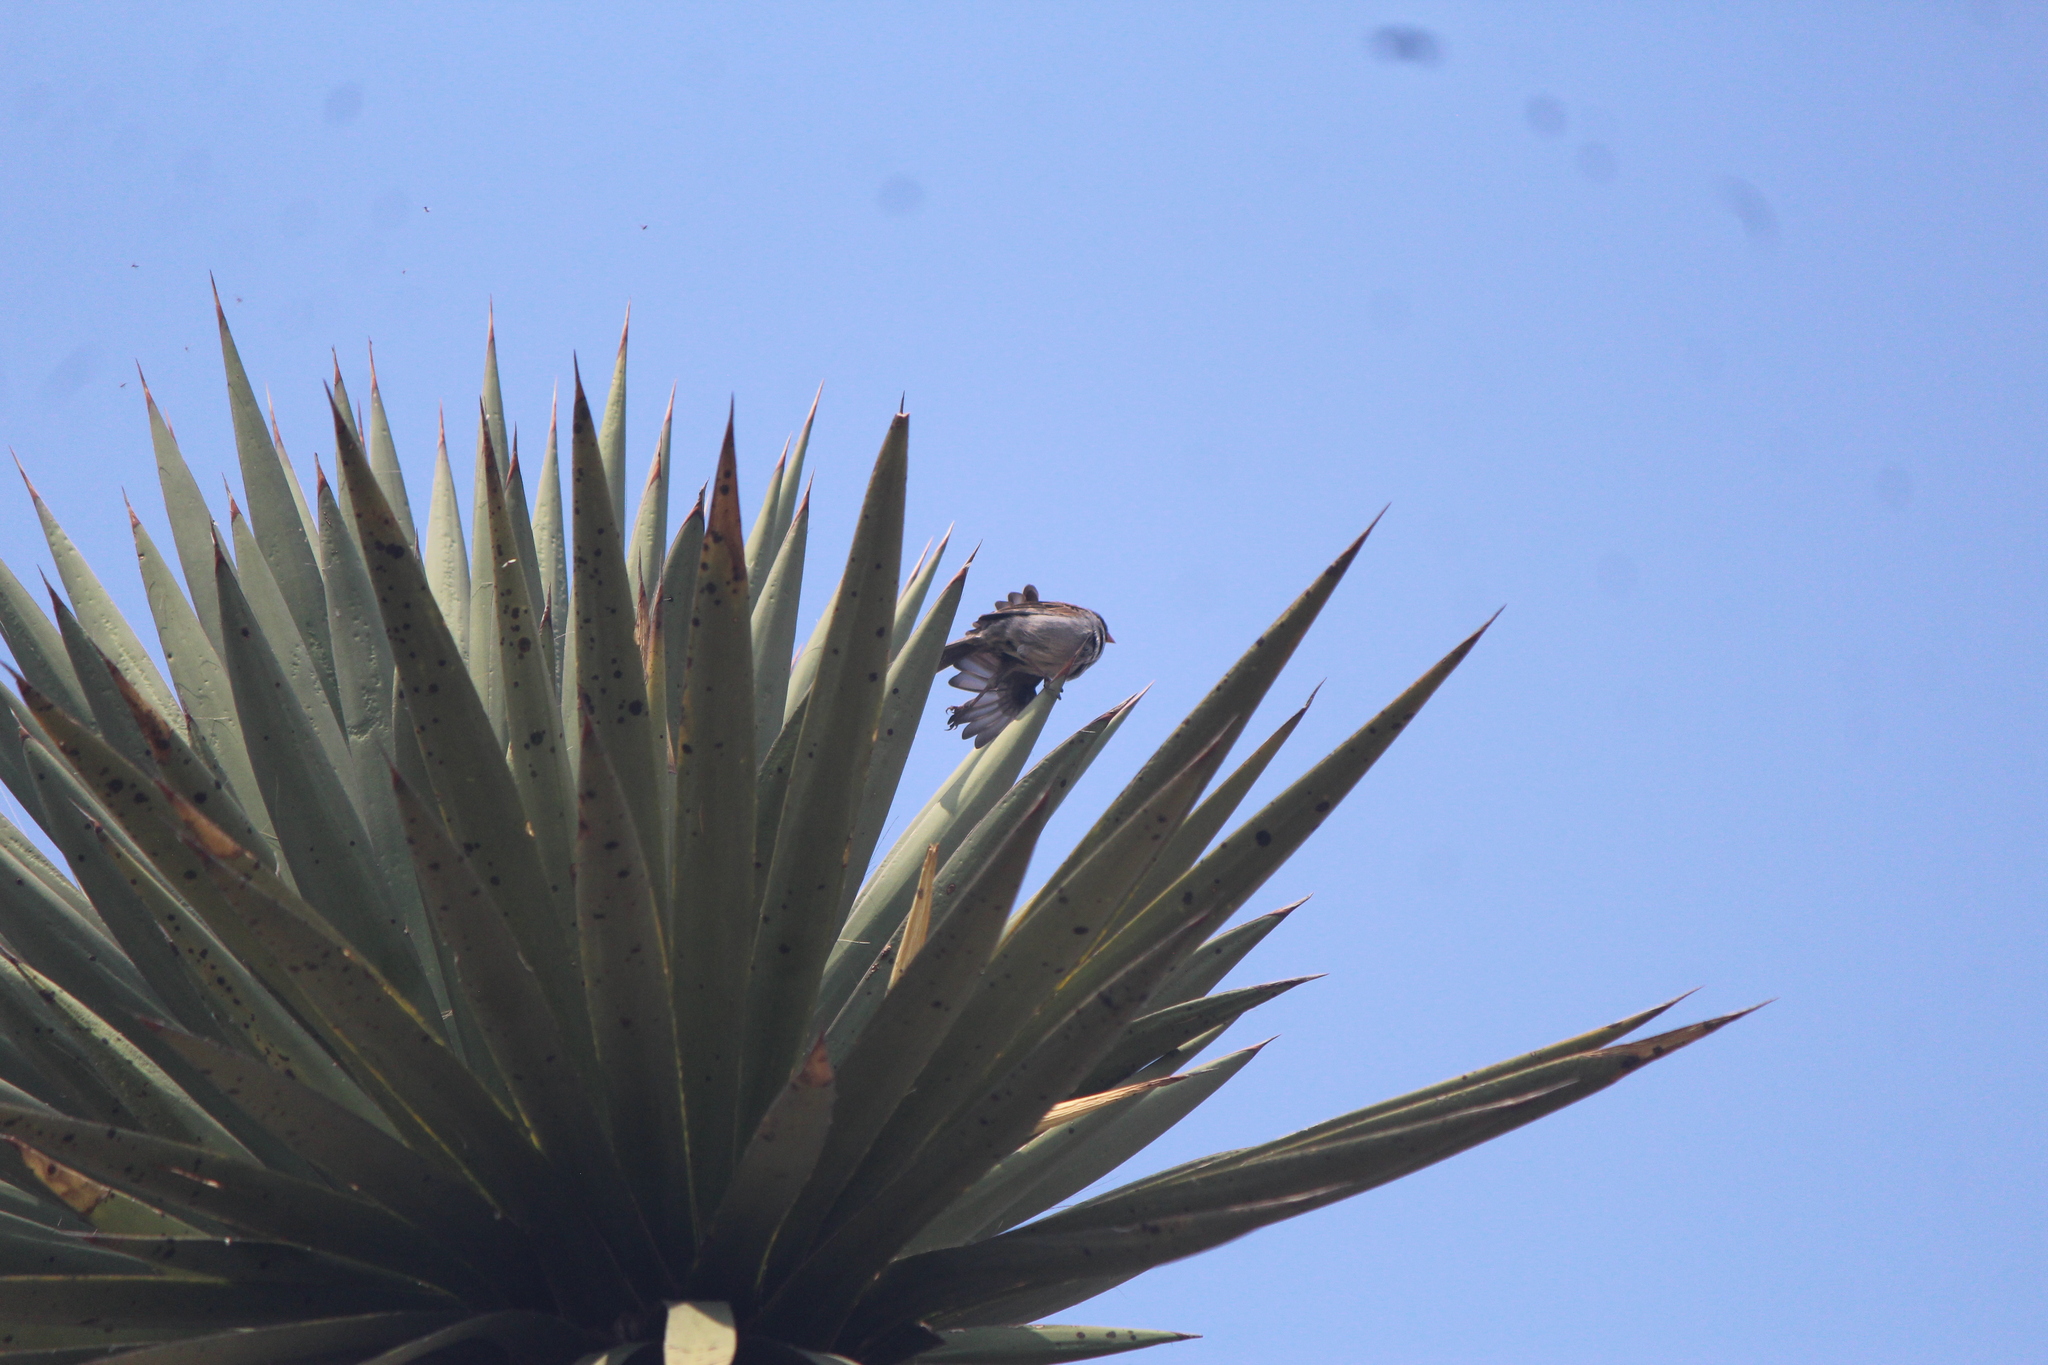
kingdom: Animalia
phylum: Chordata
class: Aves
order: Passeriformes
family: Passerellidae
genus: Spizella
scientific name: Spizella atrogularis
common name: Black-chinned sparrow
